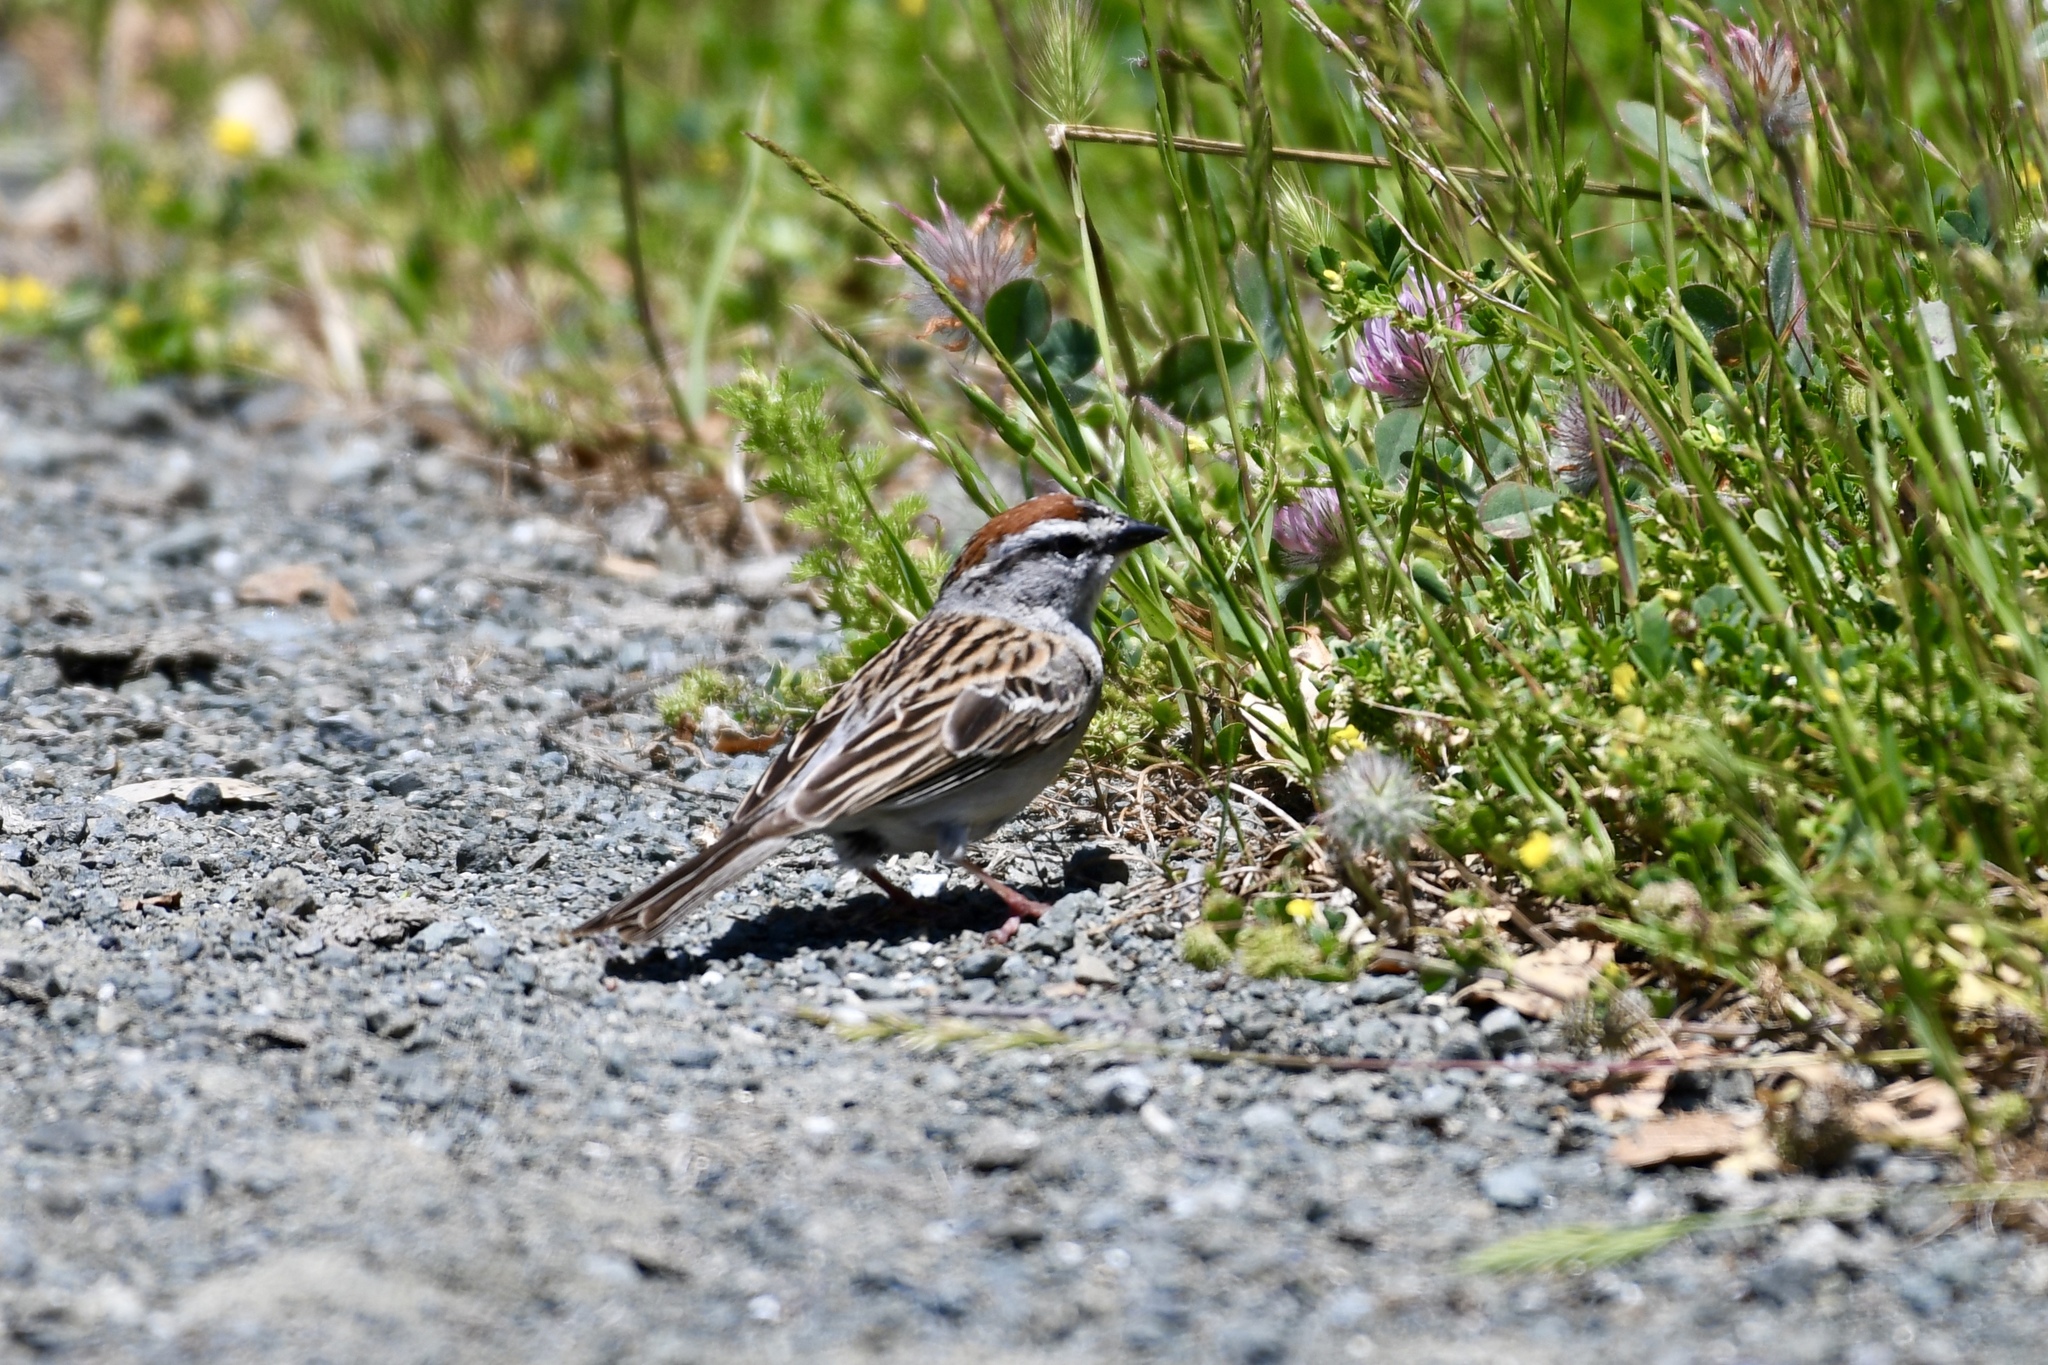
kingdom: Animalia
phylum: Chordata
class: Aves
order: Passeriformes
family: Passerellidae
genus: Spizella
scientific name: Spizella passerina
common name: Chipping sparrow
